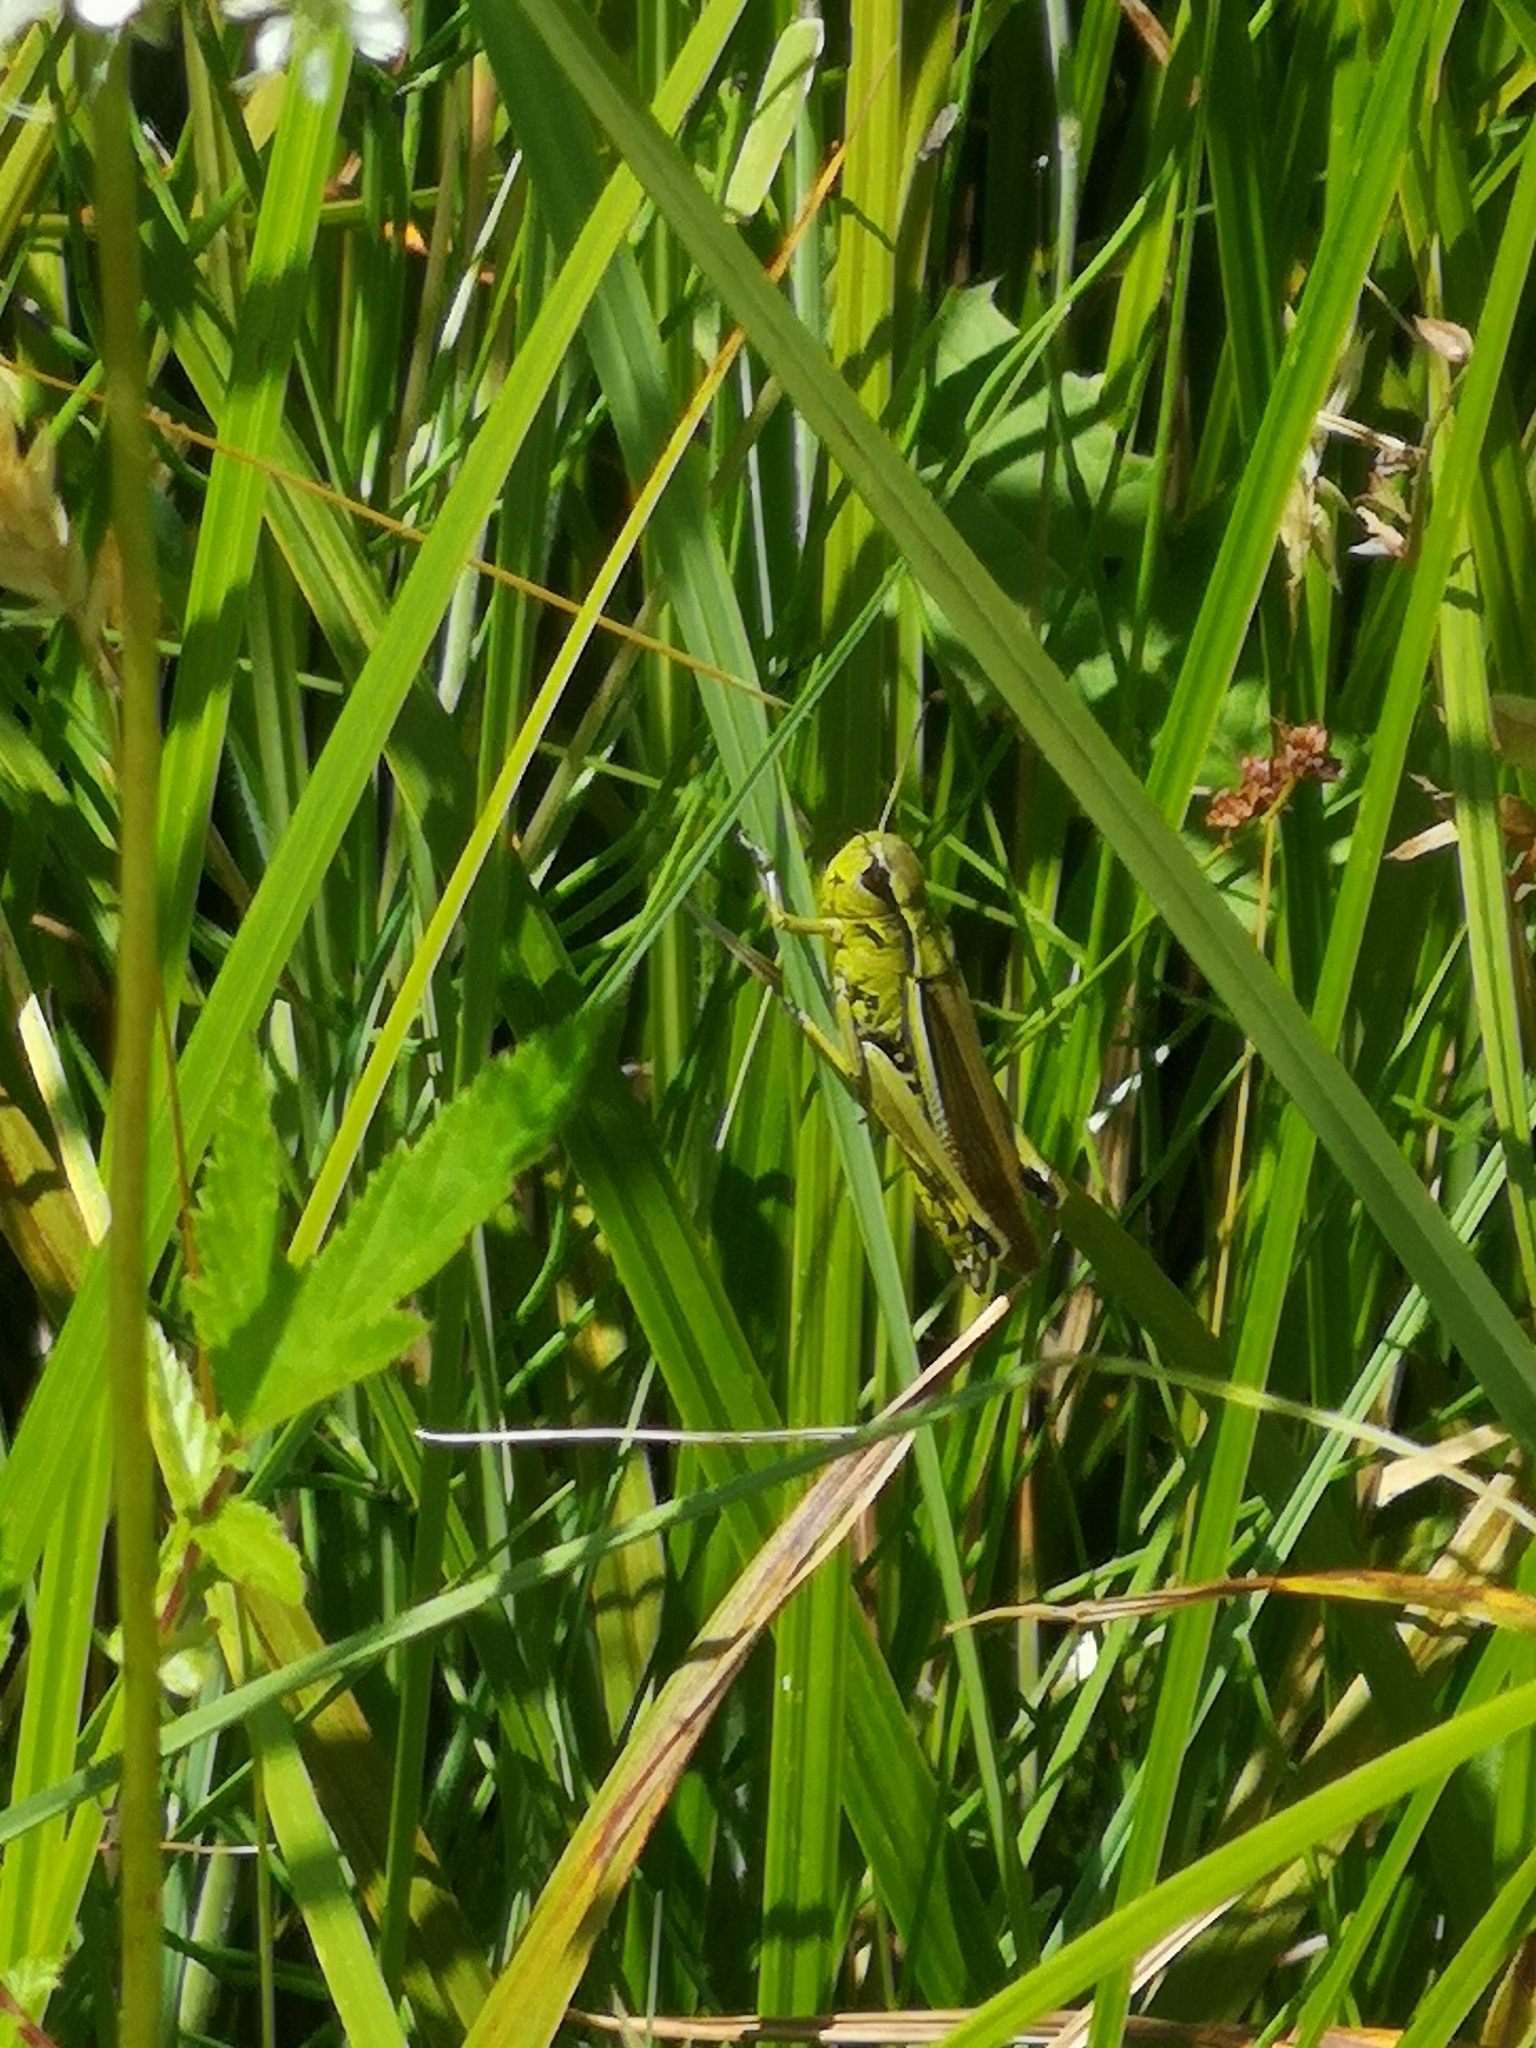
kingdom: Animalia
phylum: Arthropoda
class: Insecta
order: Orthoptera
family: Acrididae
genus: Stethophyma
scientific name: Stethophyma grossum
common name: Large marsh grasshopper
